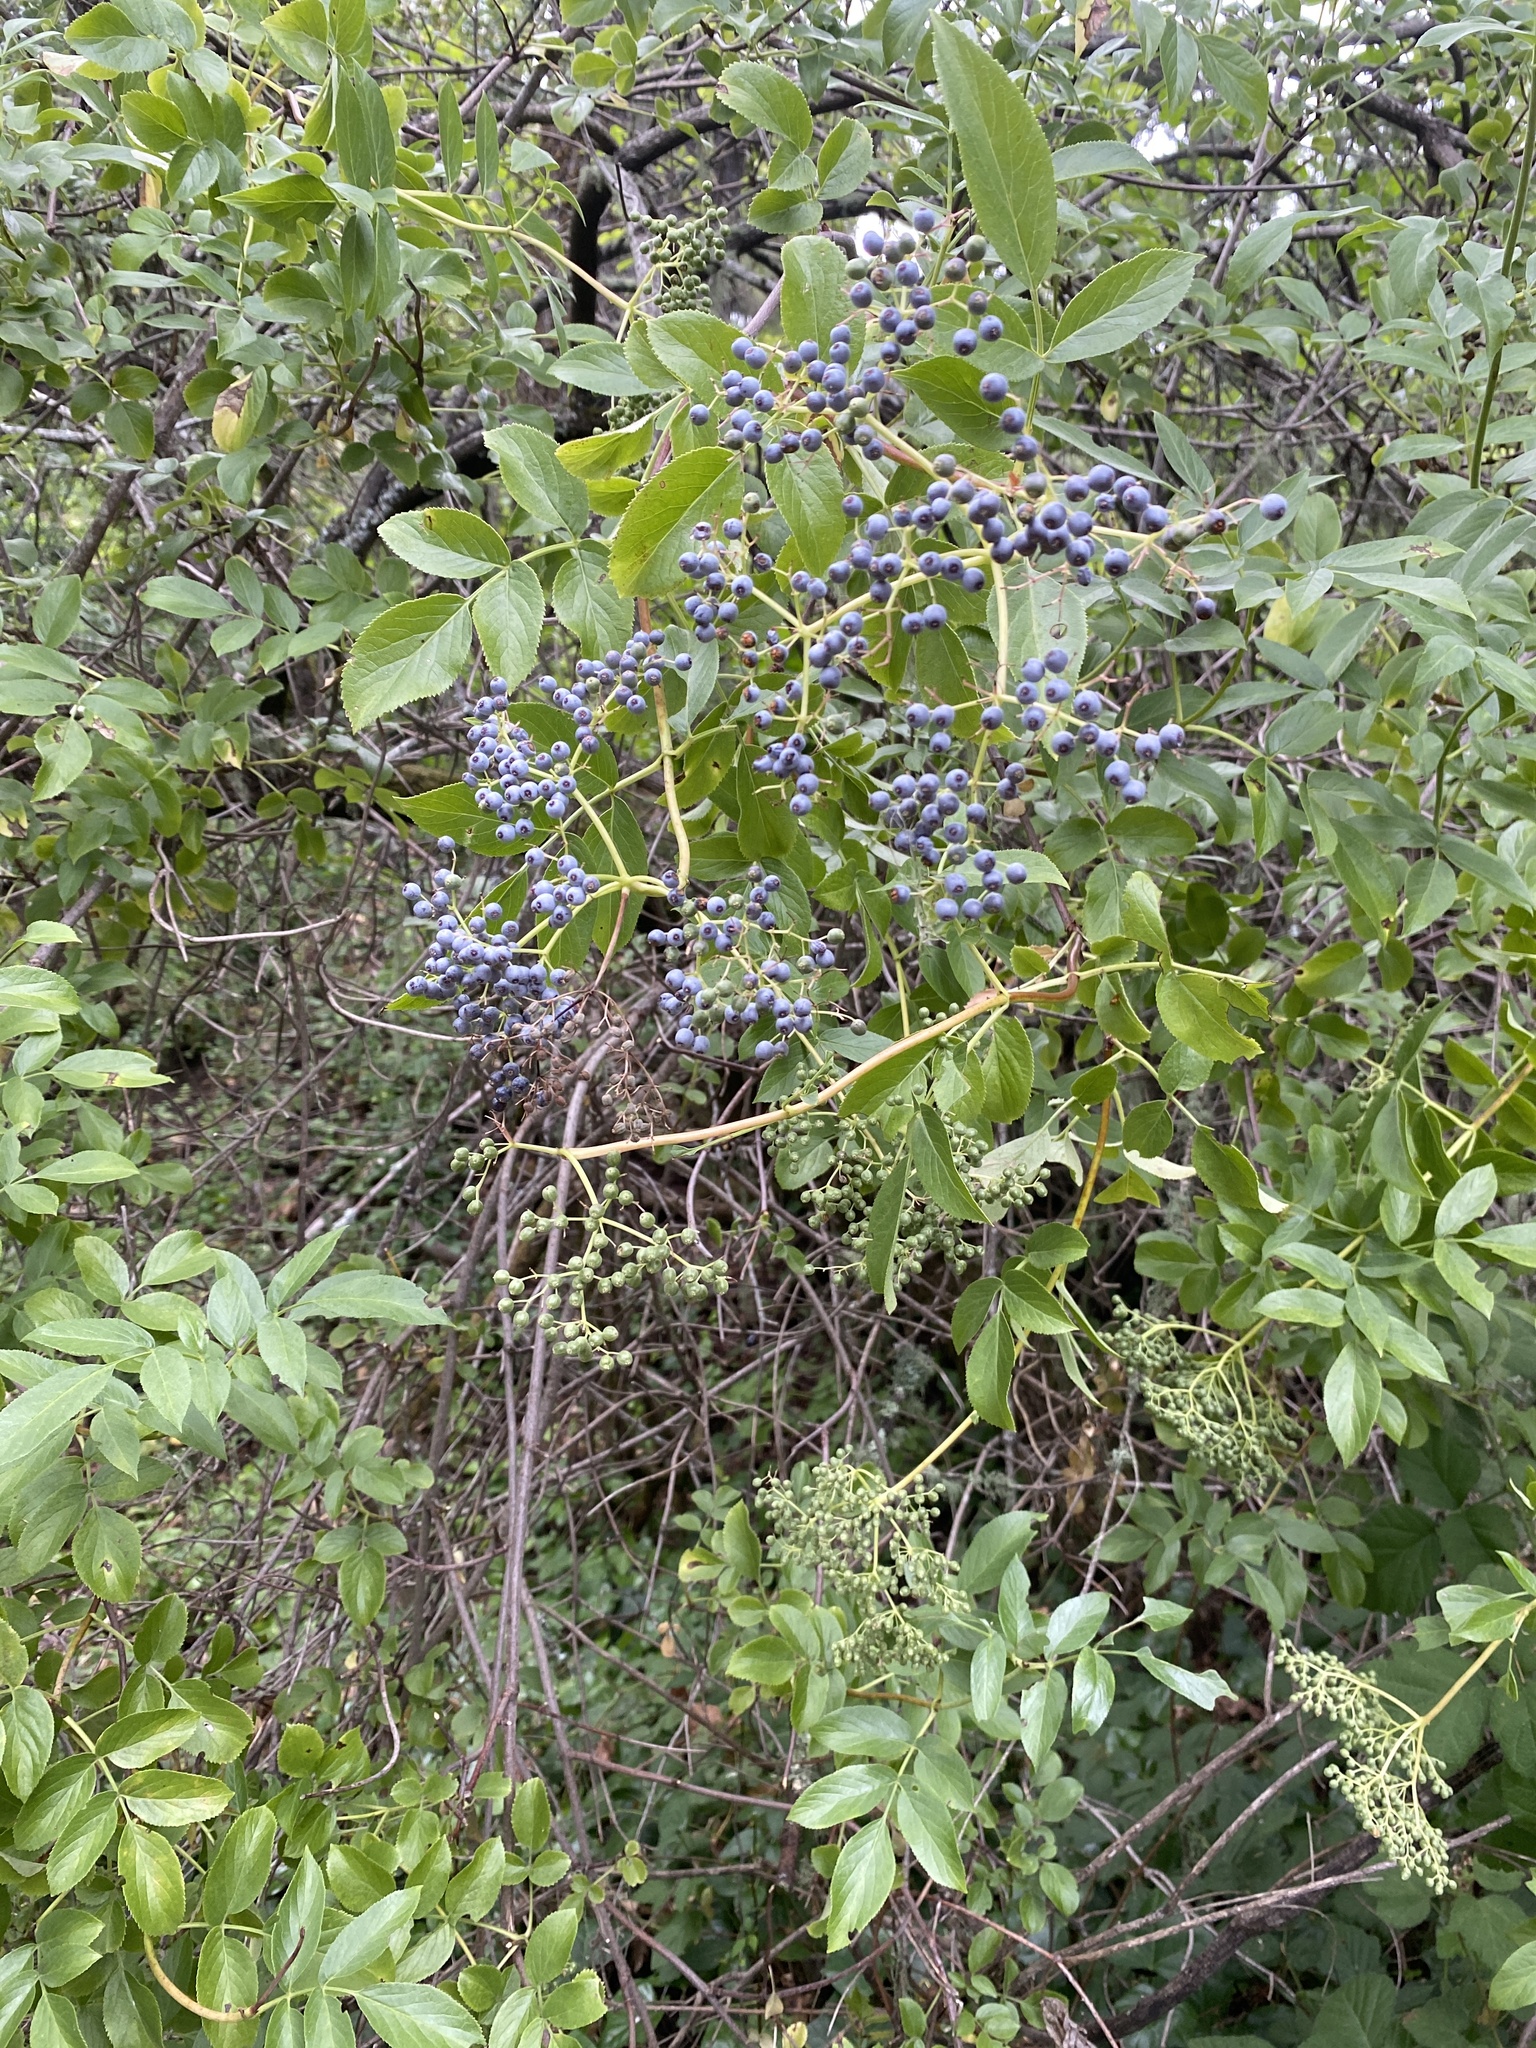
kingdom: Plantae
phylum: Tracheophyta
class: Magnoliopsida
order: Dipsacales
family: Viburnaceae
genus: Sambucus
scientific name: Sambucus cerulea
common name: Blue elder
